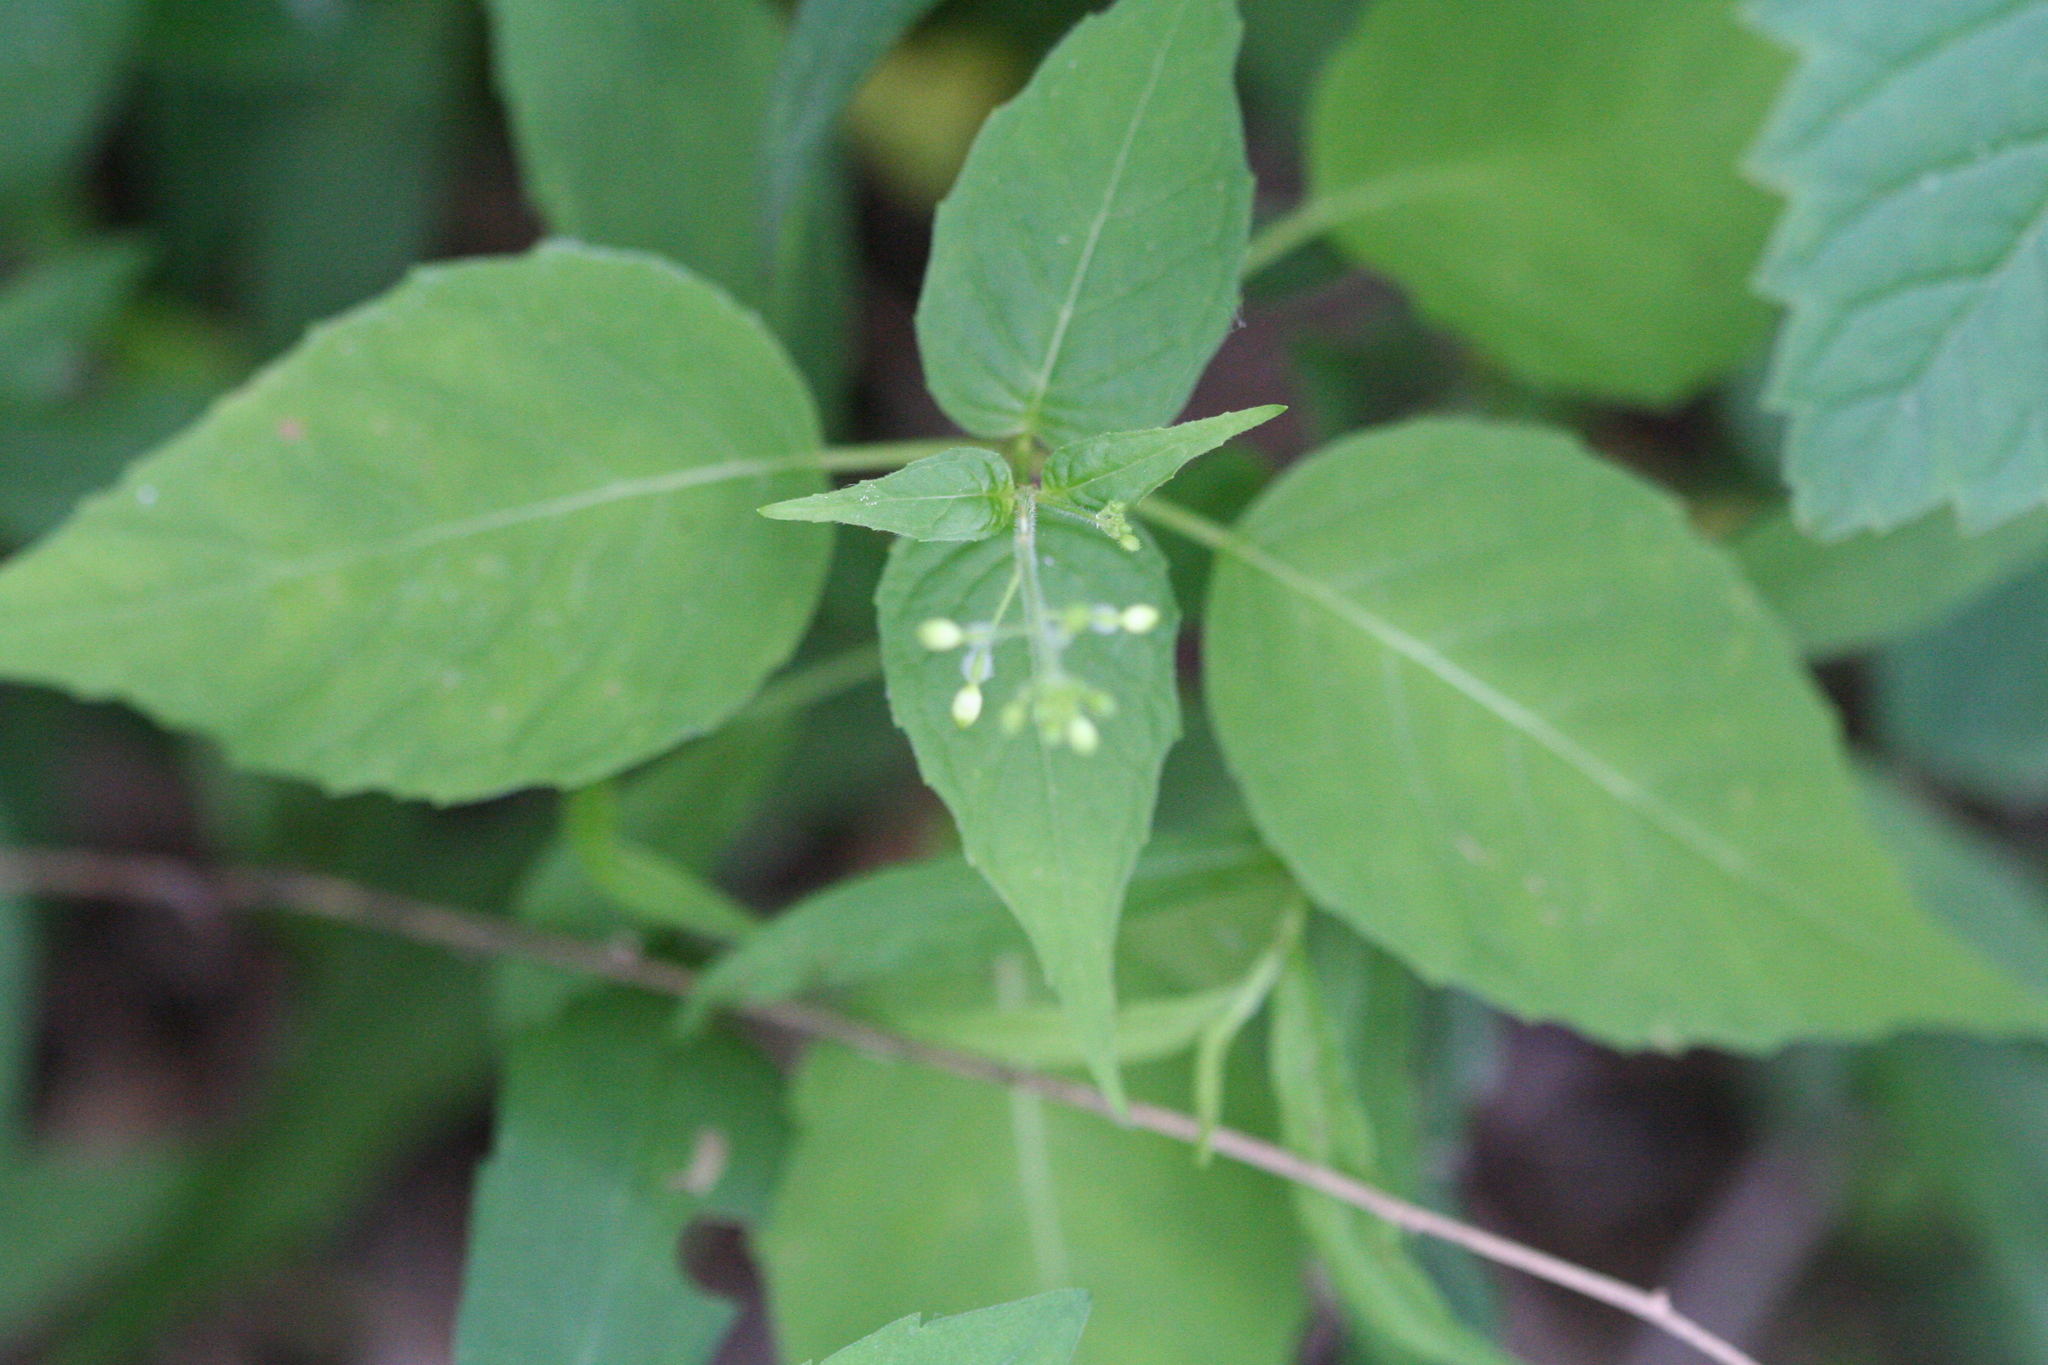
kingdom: Plantae
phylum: Tracheophyta
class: Magnoliopsida
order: Myrtales
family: Onagraceae
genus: Circaea
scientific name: Circaea canadensis
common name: Broad-leaved enchanter's nightshade
